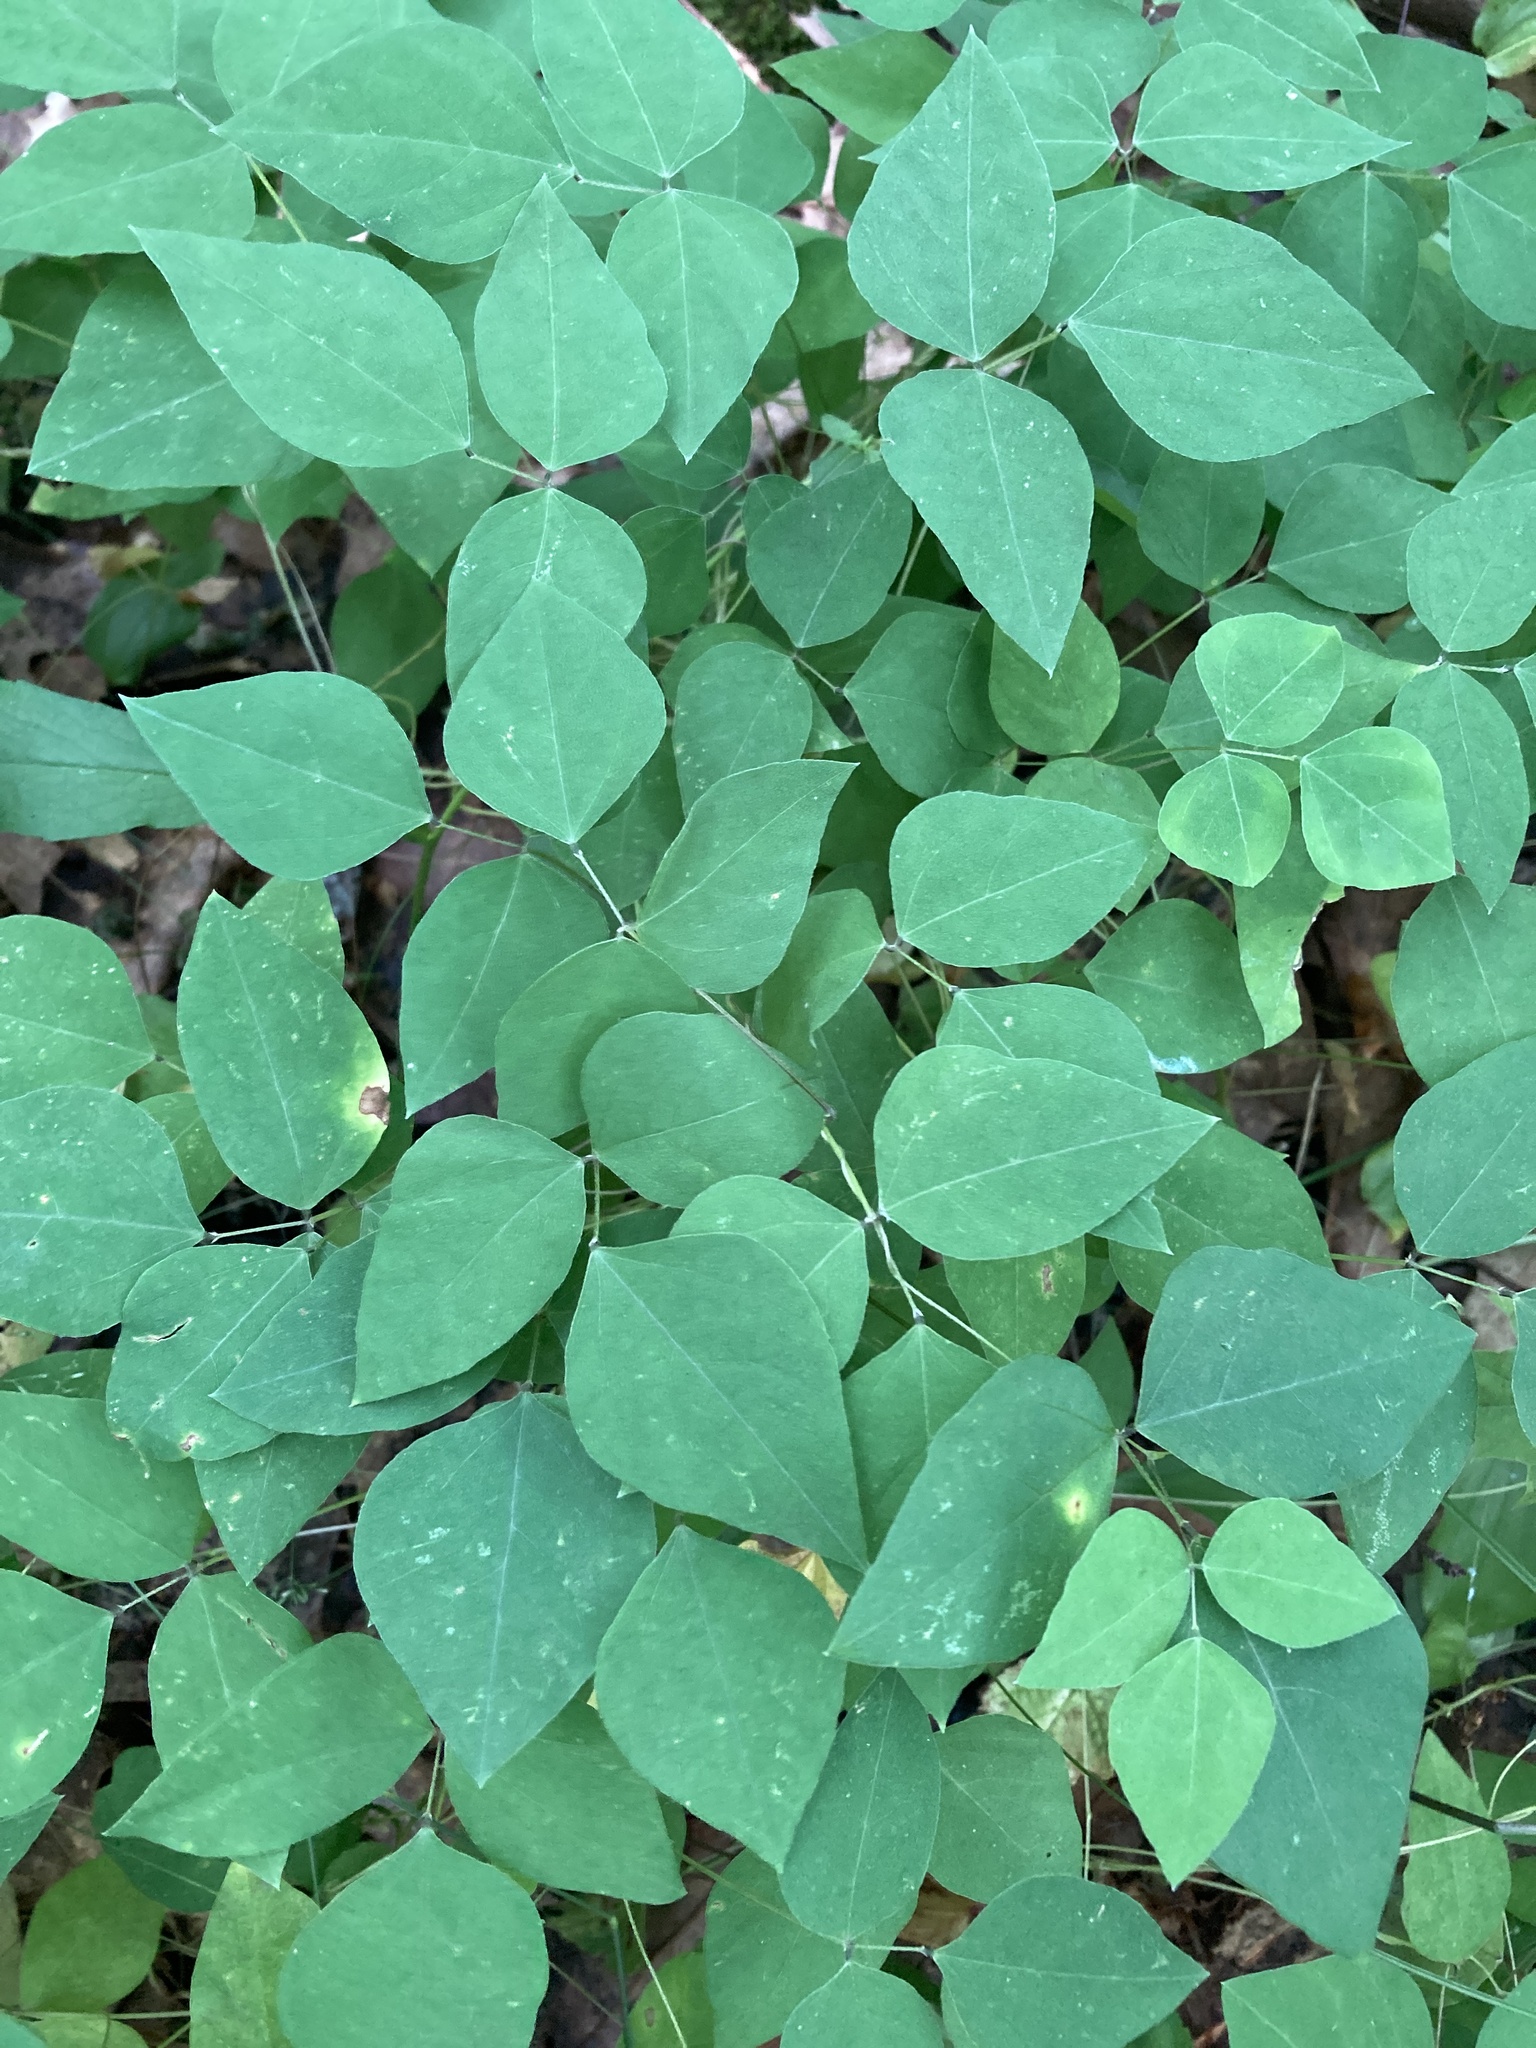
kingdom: Plantae
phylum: Tracheophyta
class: Magnoliopsida
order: Fabales
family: Fabaceae
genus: Amphicarpaea
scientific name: Amphicarpaea bracteata
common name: American hog peanut
